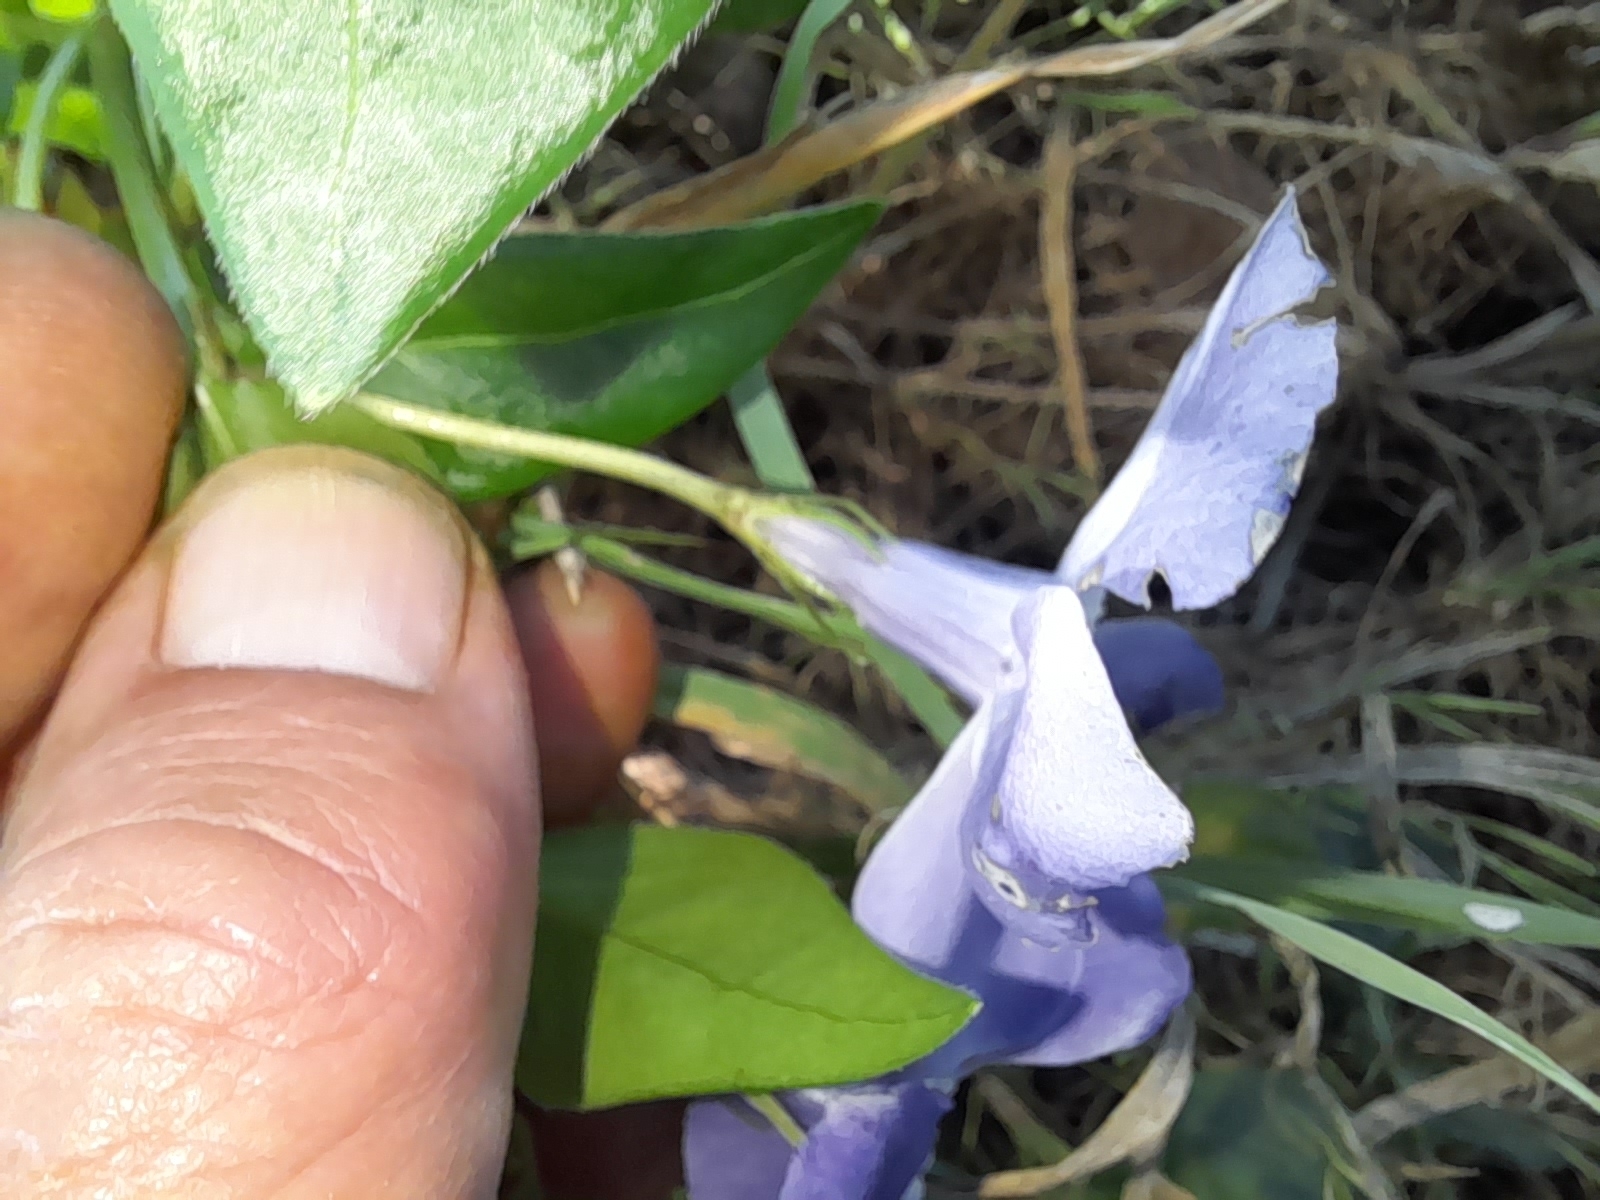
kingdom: Plantae
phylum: Tracheophyta
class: Magnoliopsida
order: Gentianales
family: Apocynaceae
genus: Vinca
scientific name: Vinca major
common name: Greater periwinkle
